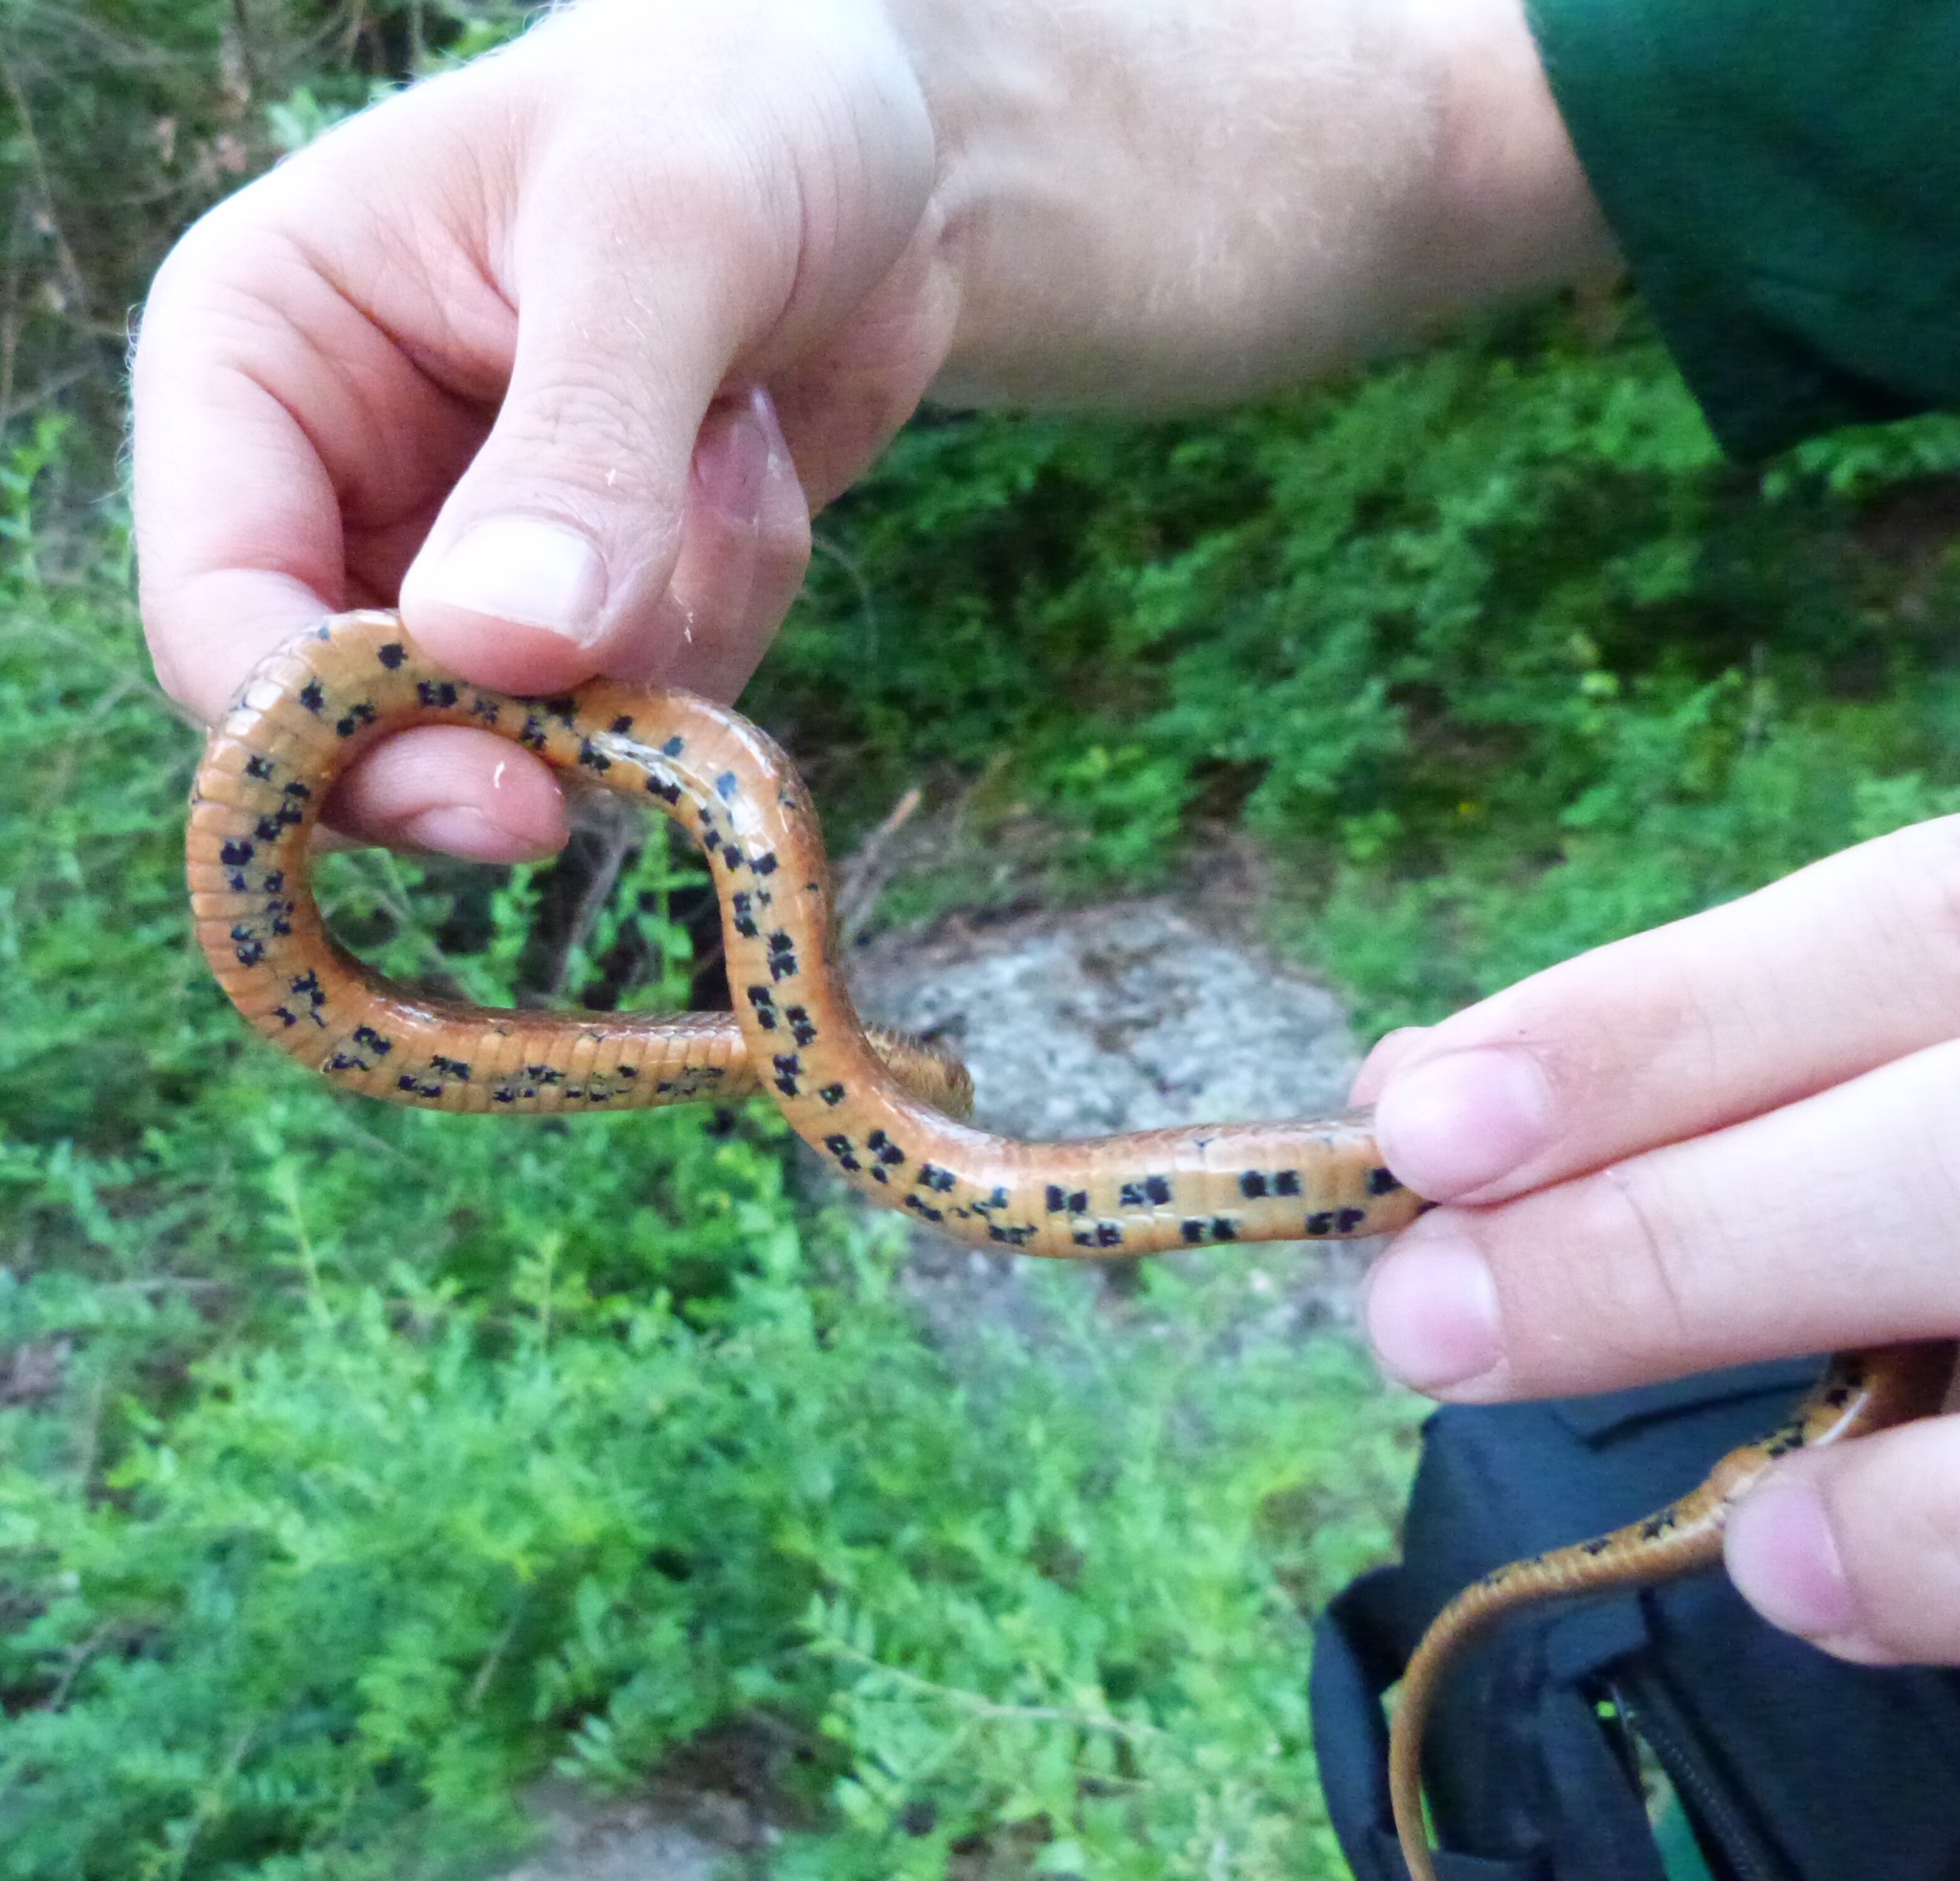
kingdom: Animalia
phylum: Chordata
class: Squamata
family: Colubridae
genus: Natrix
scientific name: Natrix maura
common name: Viperine water snake
